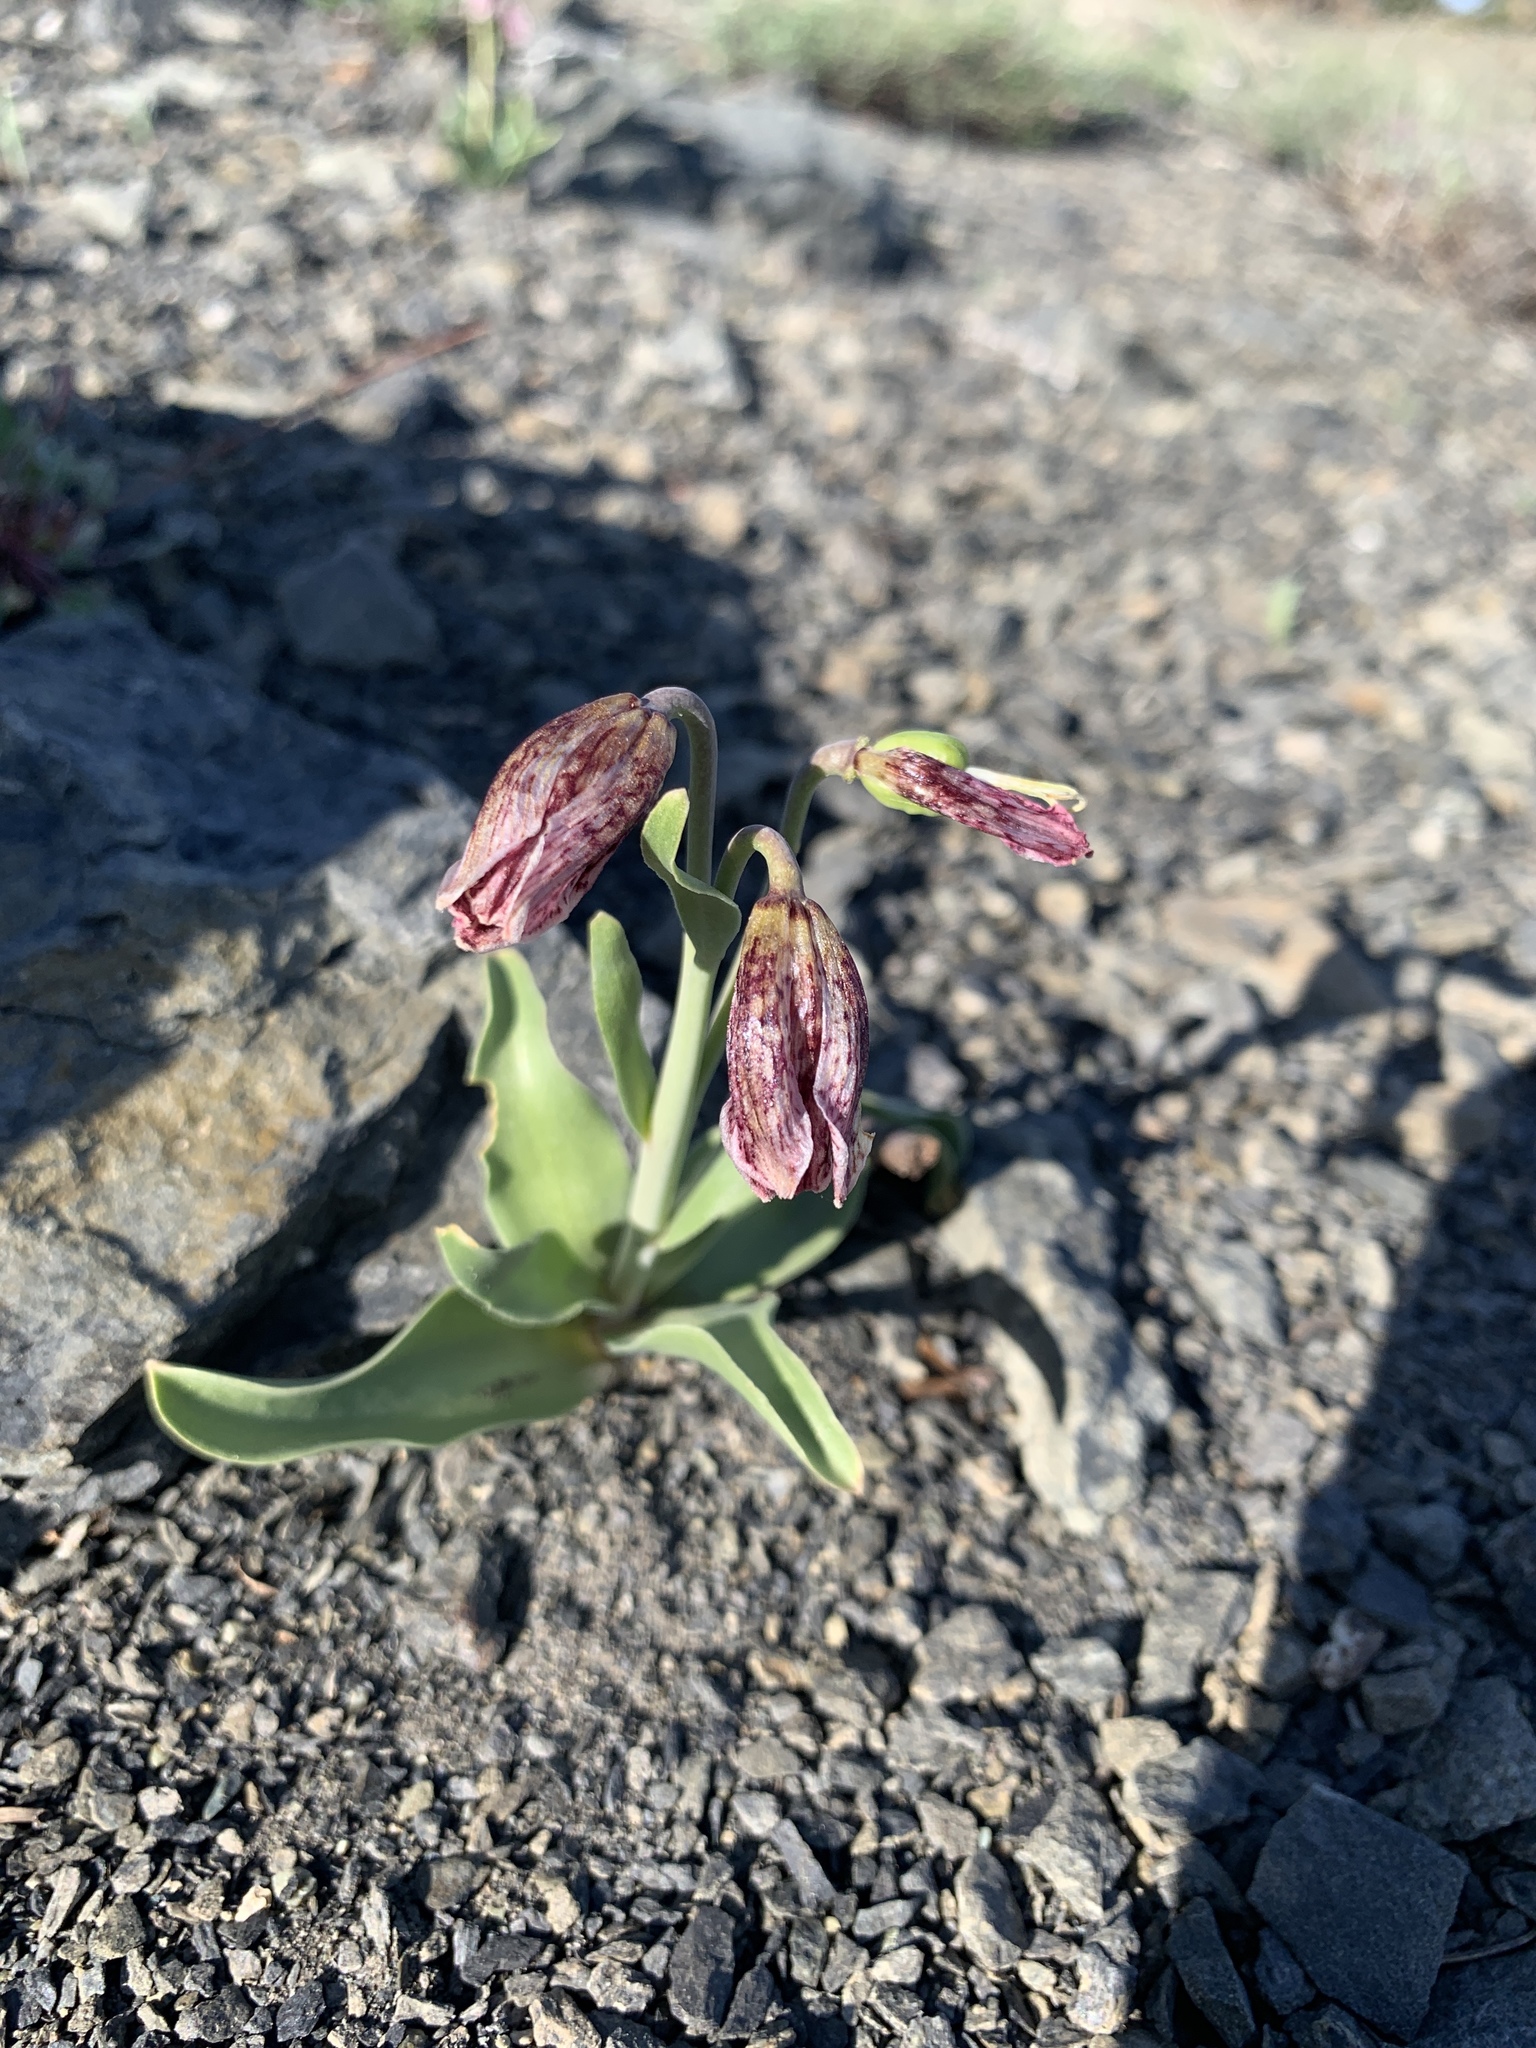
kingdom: Plantae
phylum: Tracheophyta
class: Liliopsida
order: Liliales
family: Liliaceae
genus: Fritillaria
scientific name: Fritillaria purdyi
